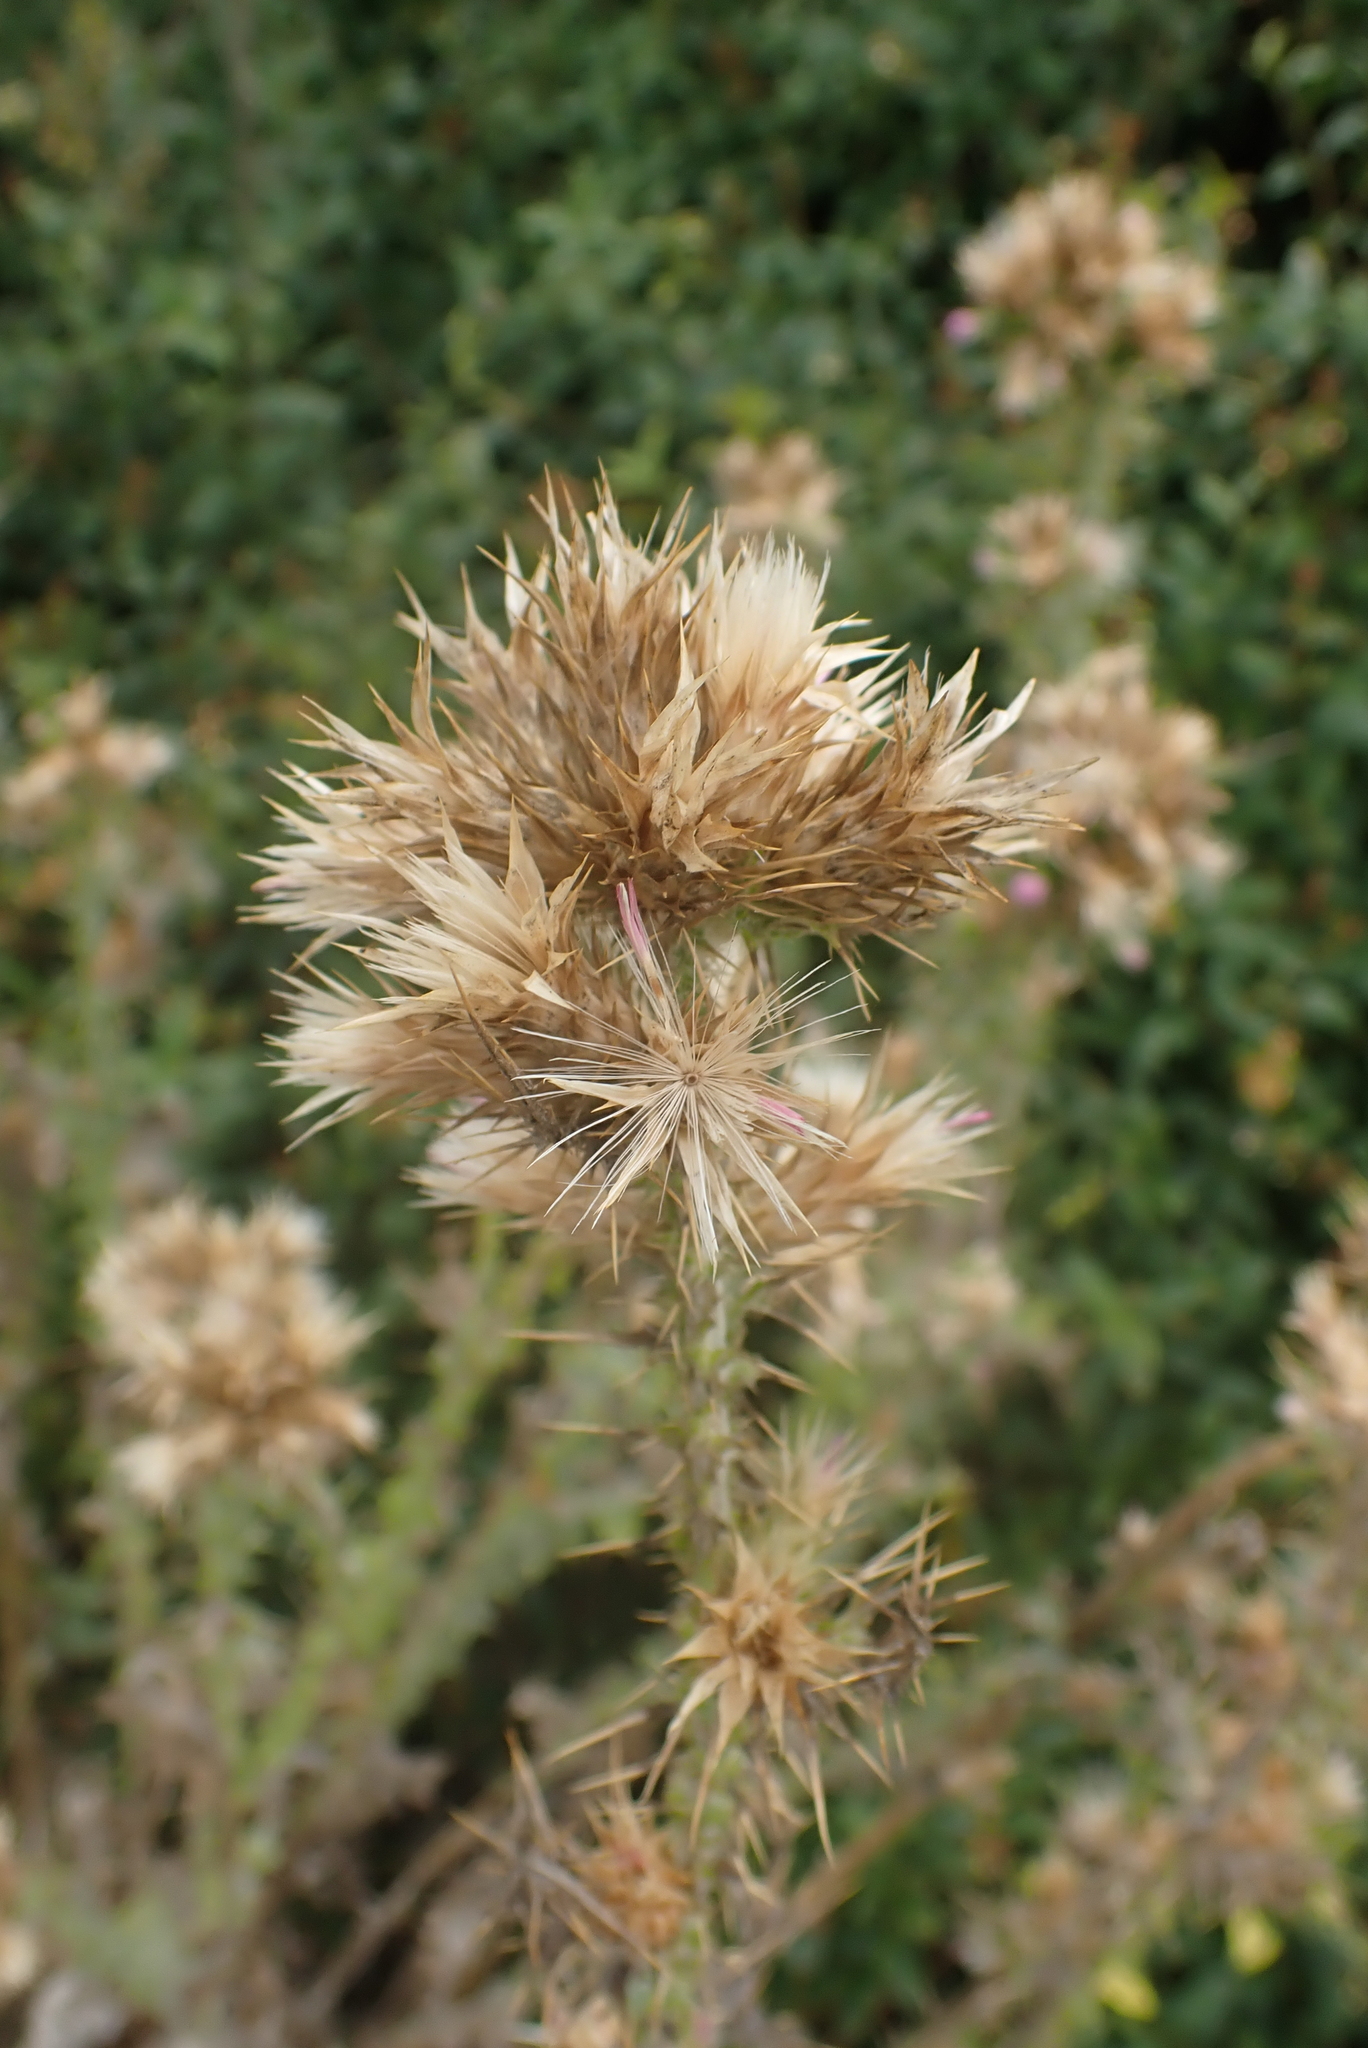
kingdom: Plantae
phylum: Tracheophyta
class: Magnoliopsida
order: Asterales
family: Asteraceae
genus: Carduus
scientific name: Carduus tenuiflorus
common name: Slender thistle
